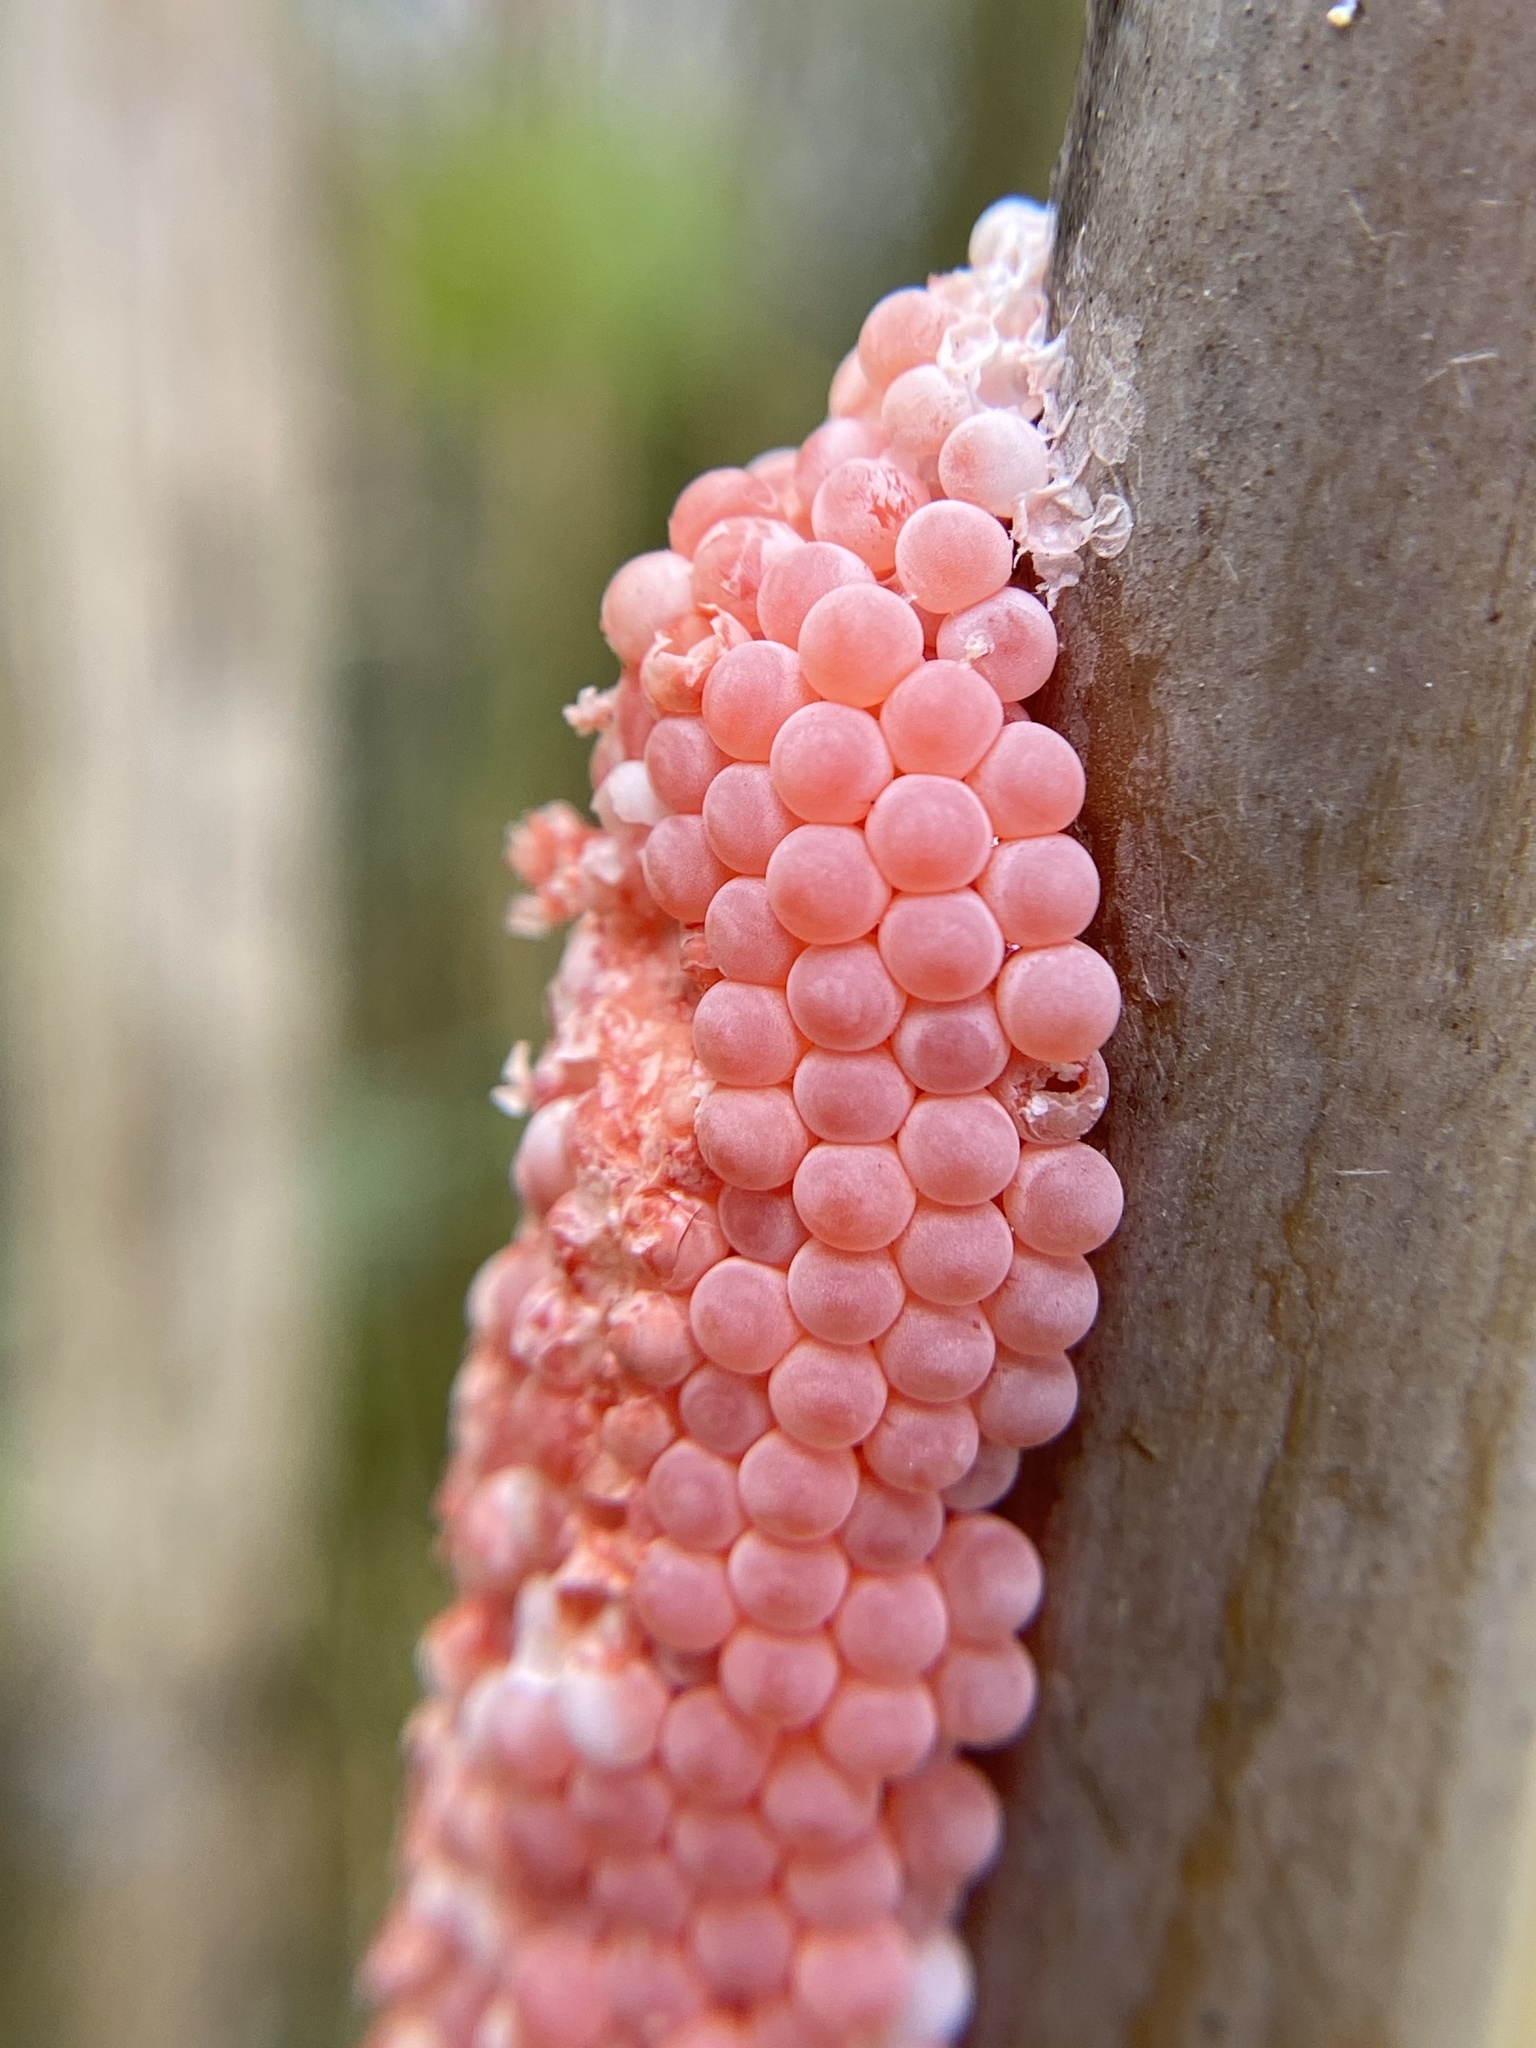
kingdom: Animalia
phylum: Mollusca
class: Gastropoda
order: Architaenioglossa
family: Ampullariidae
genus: Pomacea
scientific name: Pomacea maculata
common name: Giant applesnail
